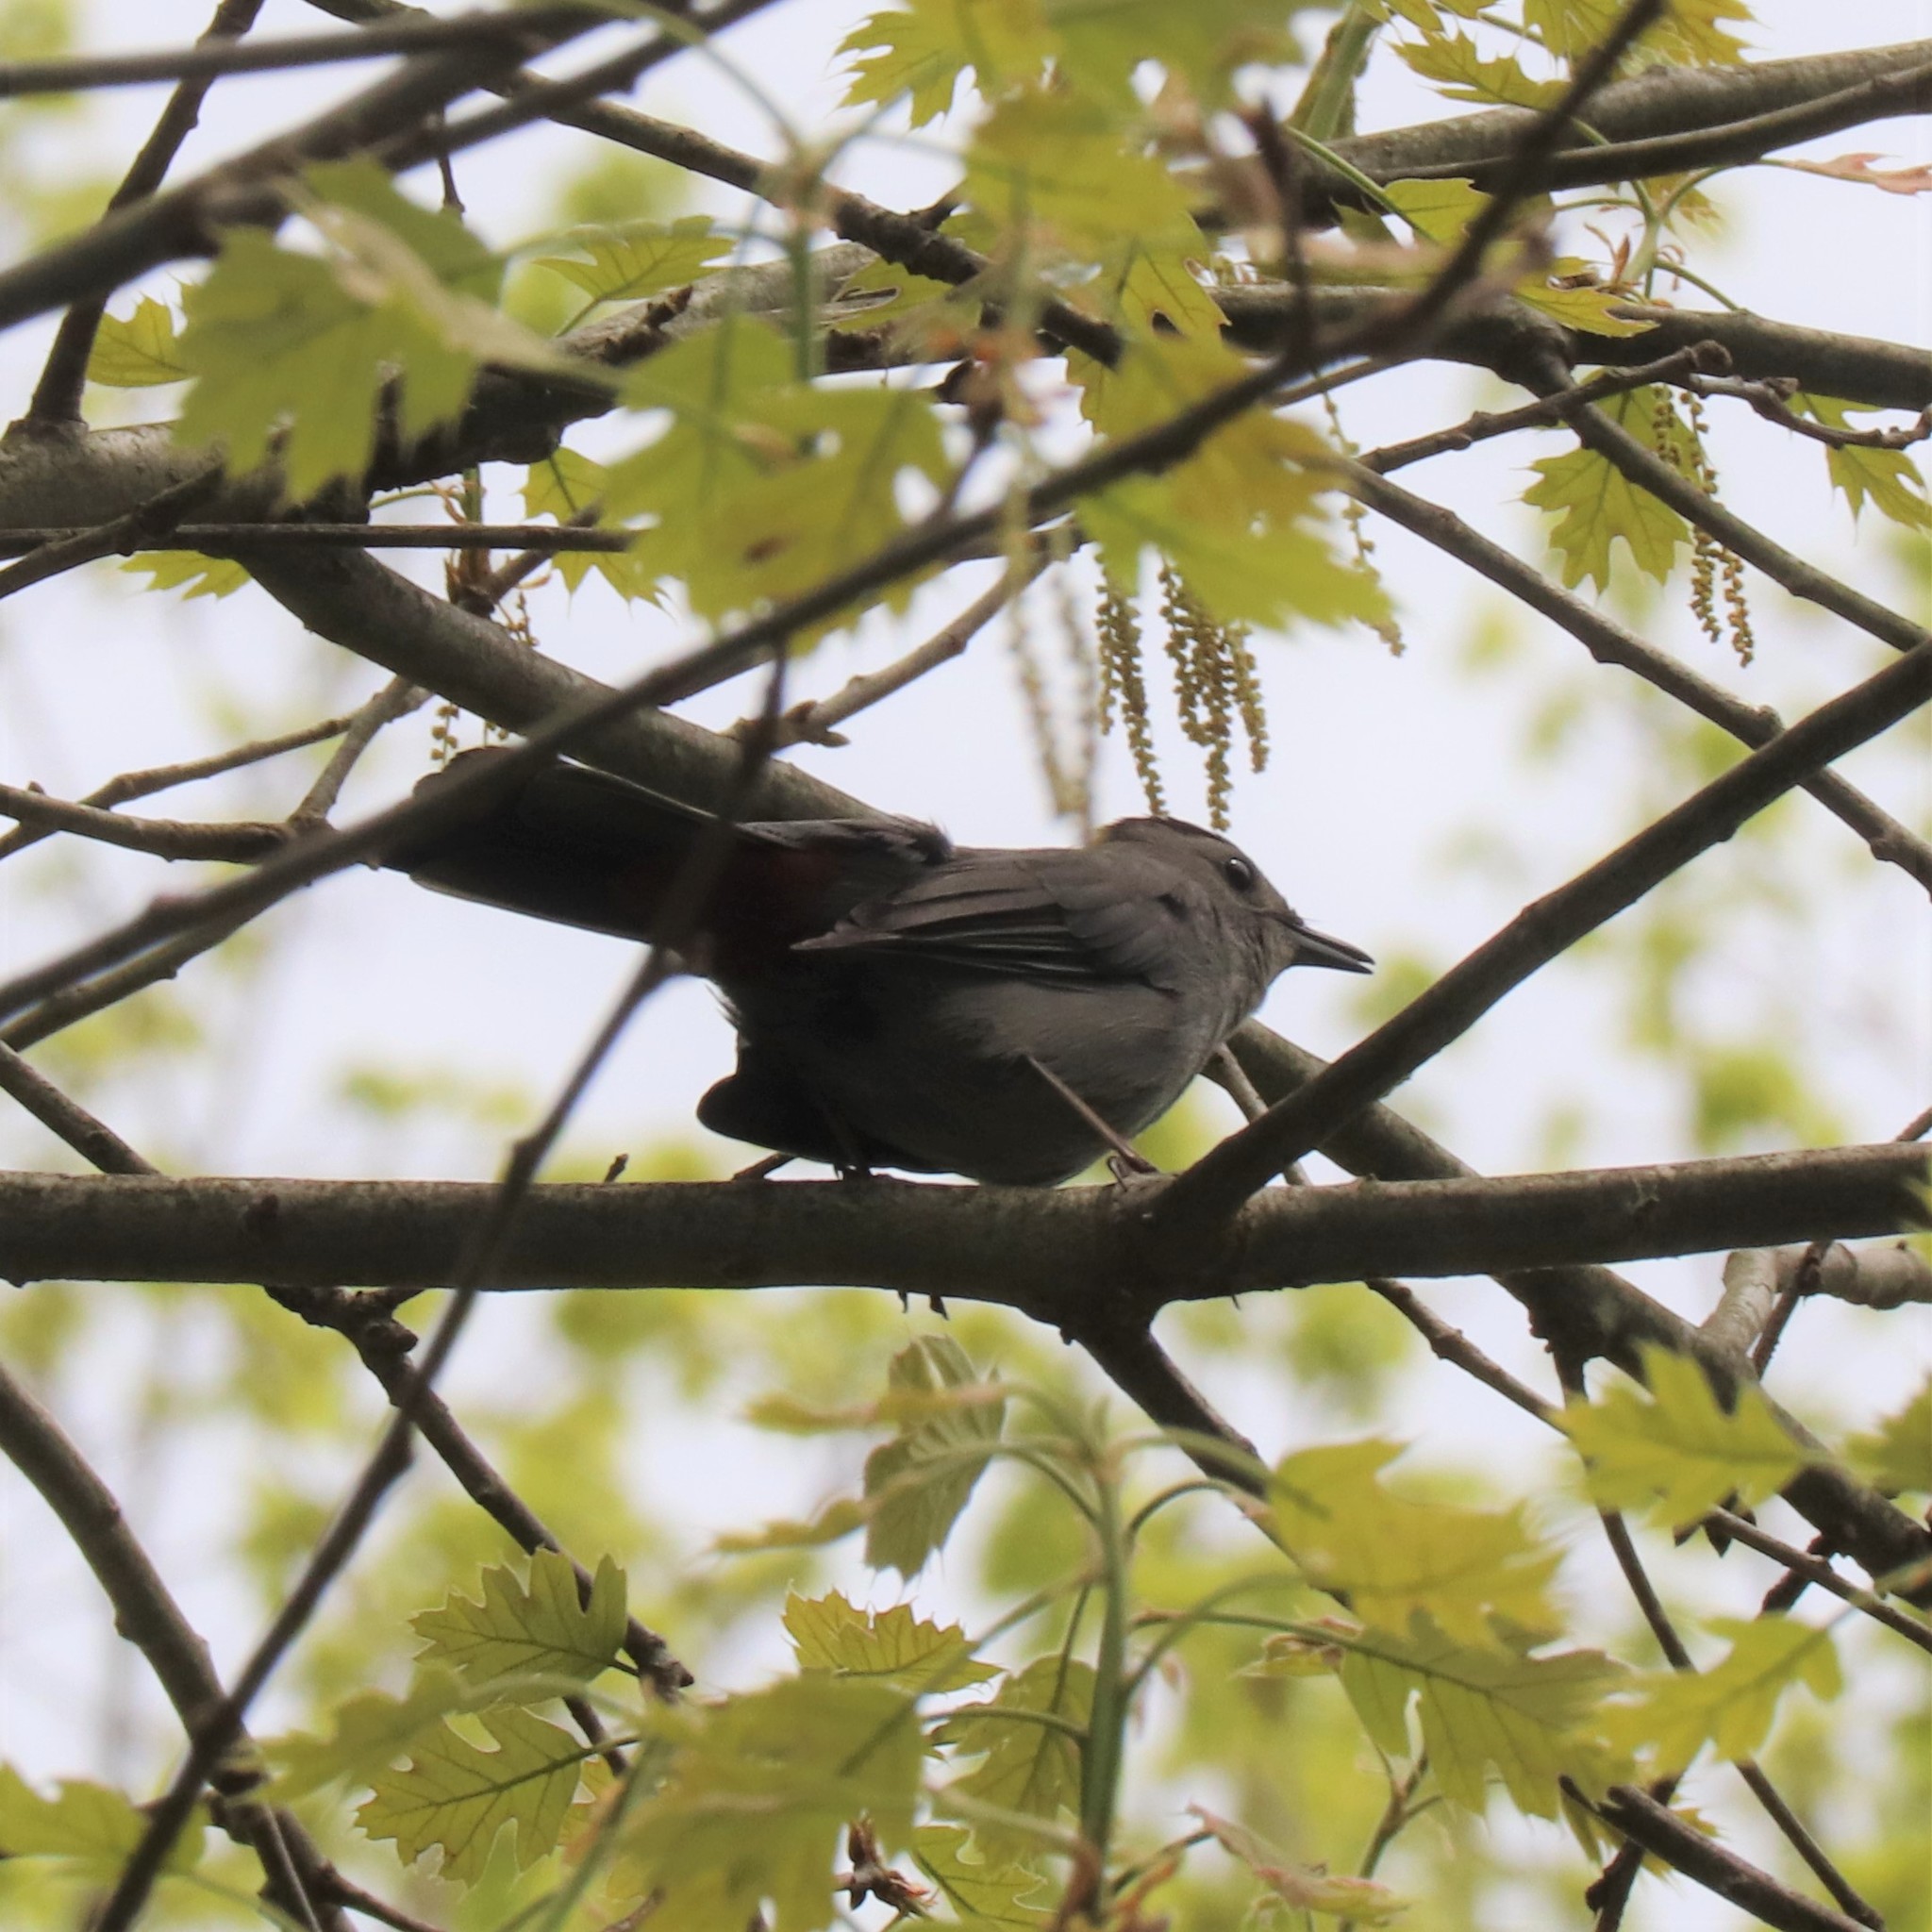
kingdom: Animalia
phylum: Chordata
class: Aves
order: Passeriformes
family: Mimidae
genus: Dumetella
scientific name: Dumetella carolinensis
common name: Gray catbird
